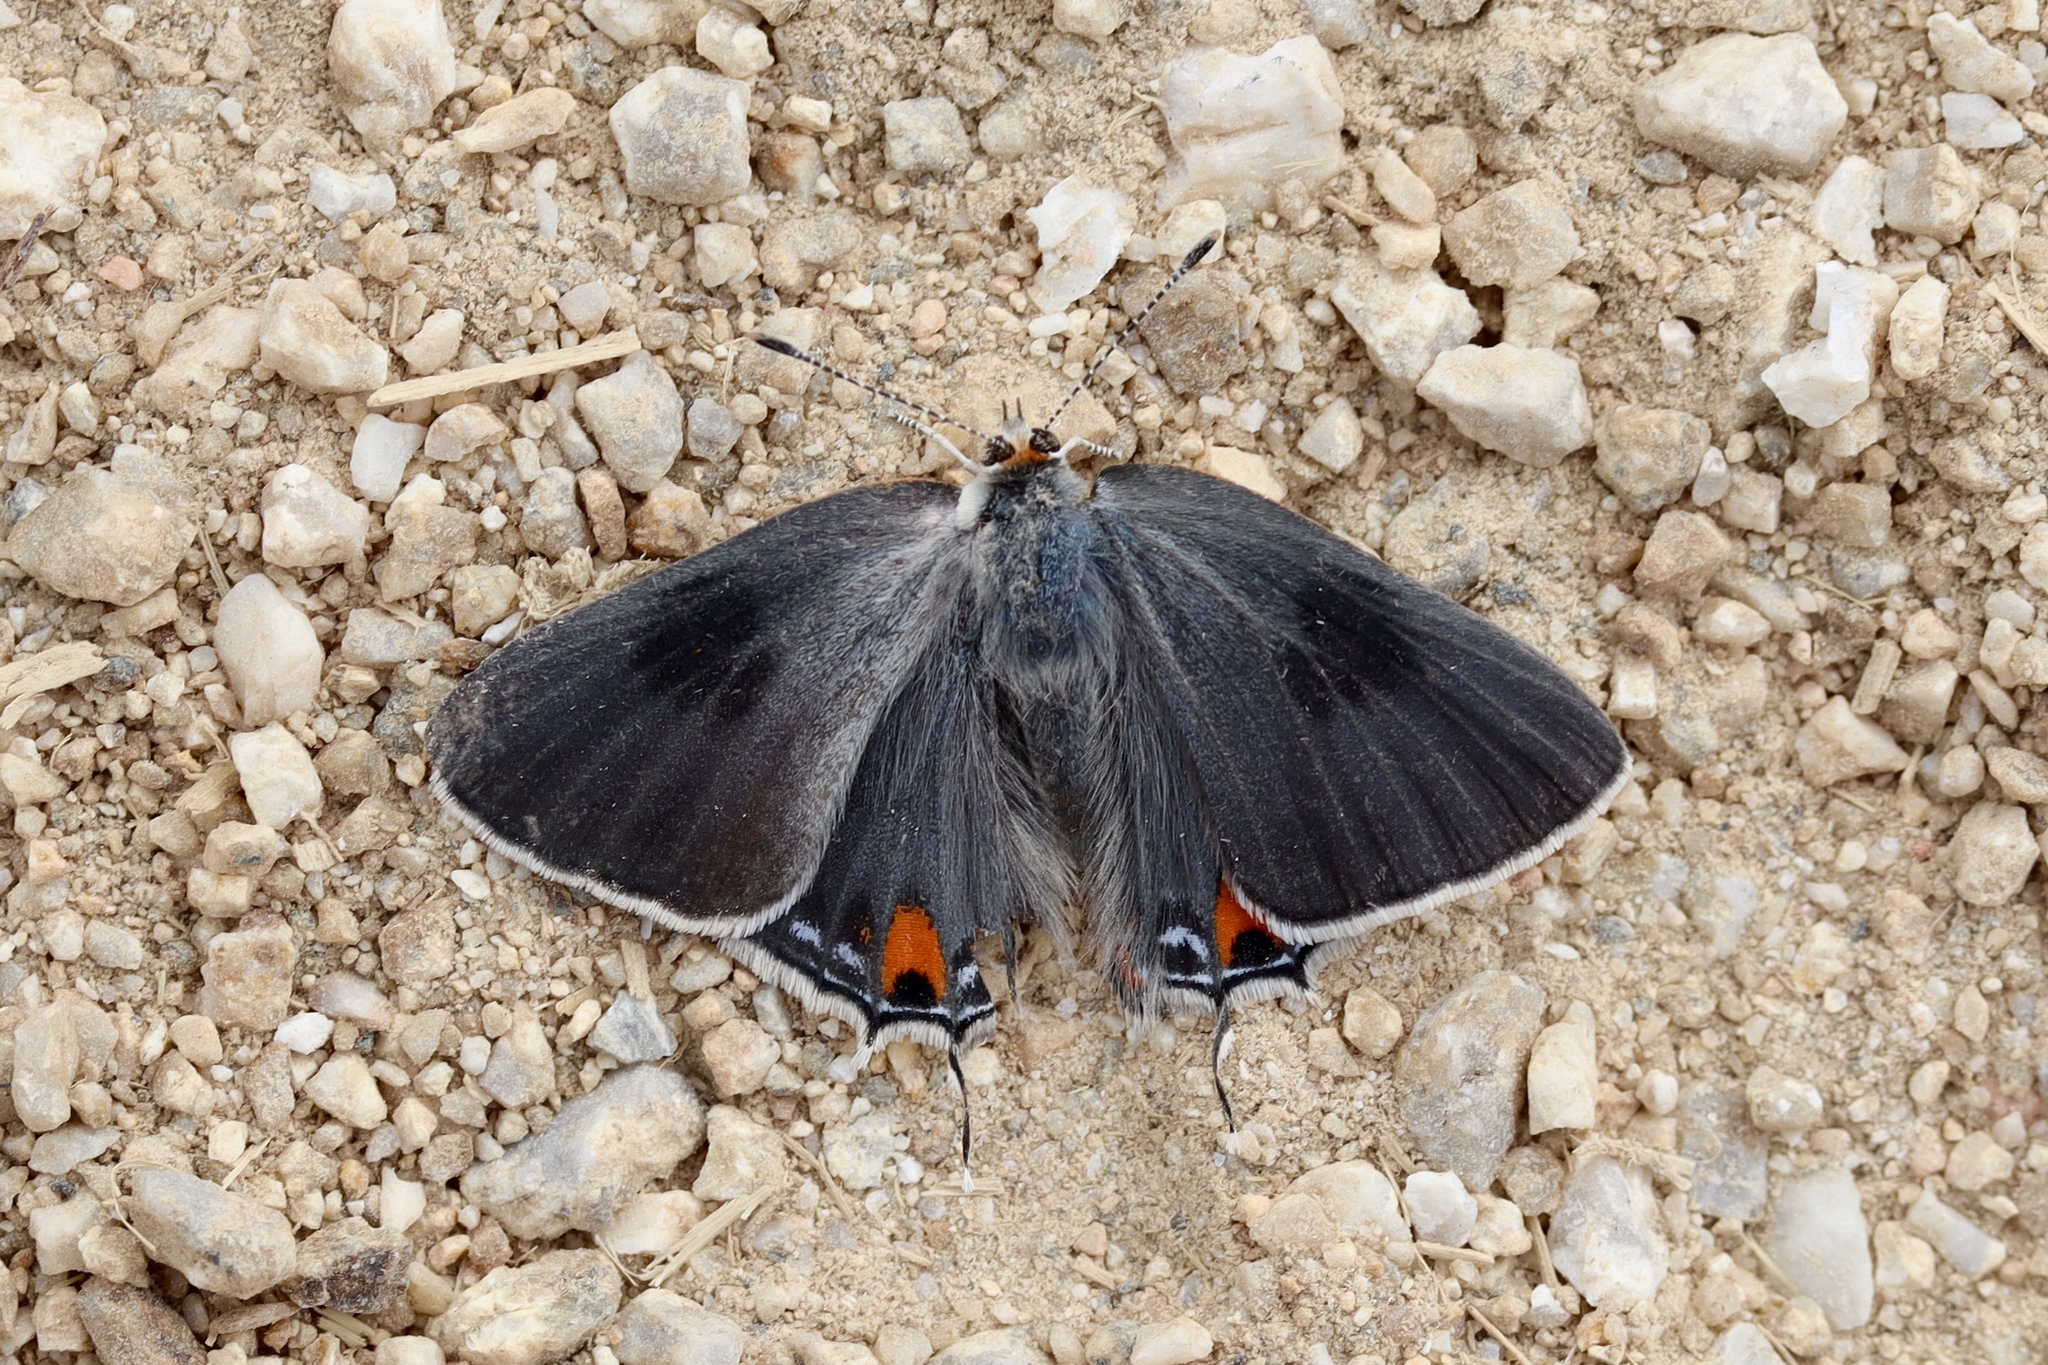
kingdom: Animalia
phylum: Arthropoda
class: Insecta
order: Lepidoptera
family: Lycaenidae
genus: Strymon
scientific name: Strymon melinus
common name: Gray hairstreak
